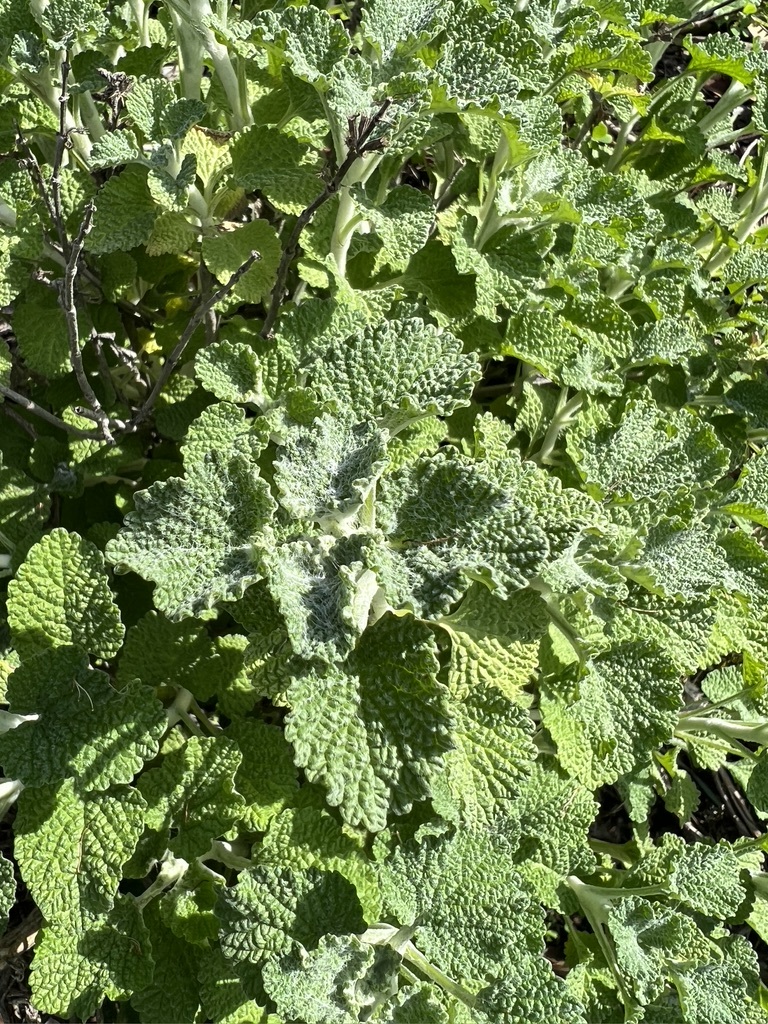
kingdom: Plantae
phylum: Tracheophyta
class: Magnoliopsida
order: Lamiales
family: Lamiaceae
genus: Marrubium
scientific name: Marrubium vulgare
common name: Horehound
